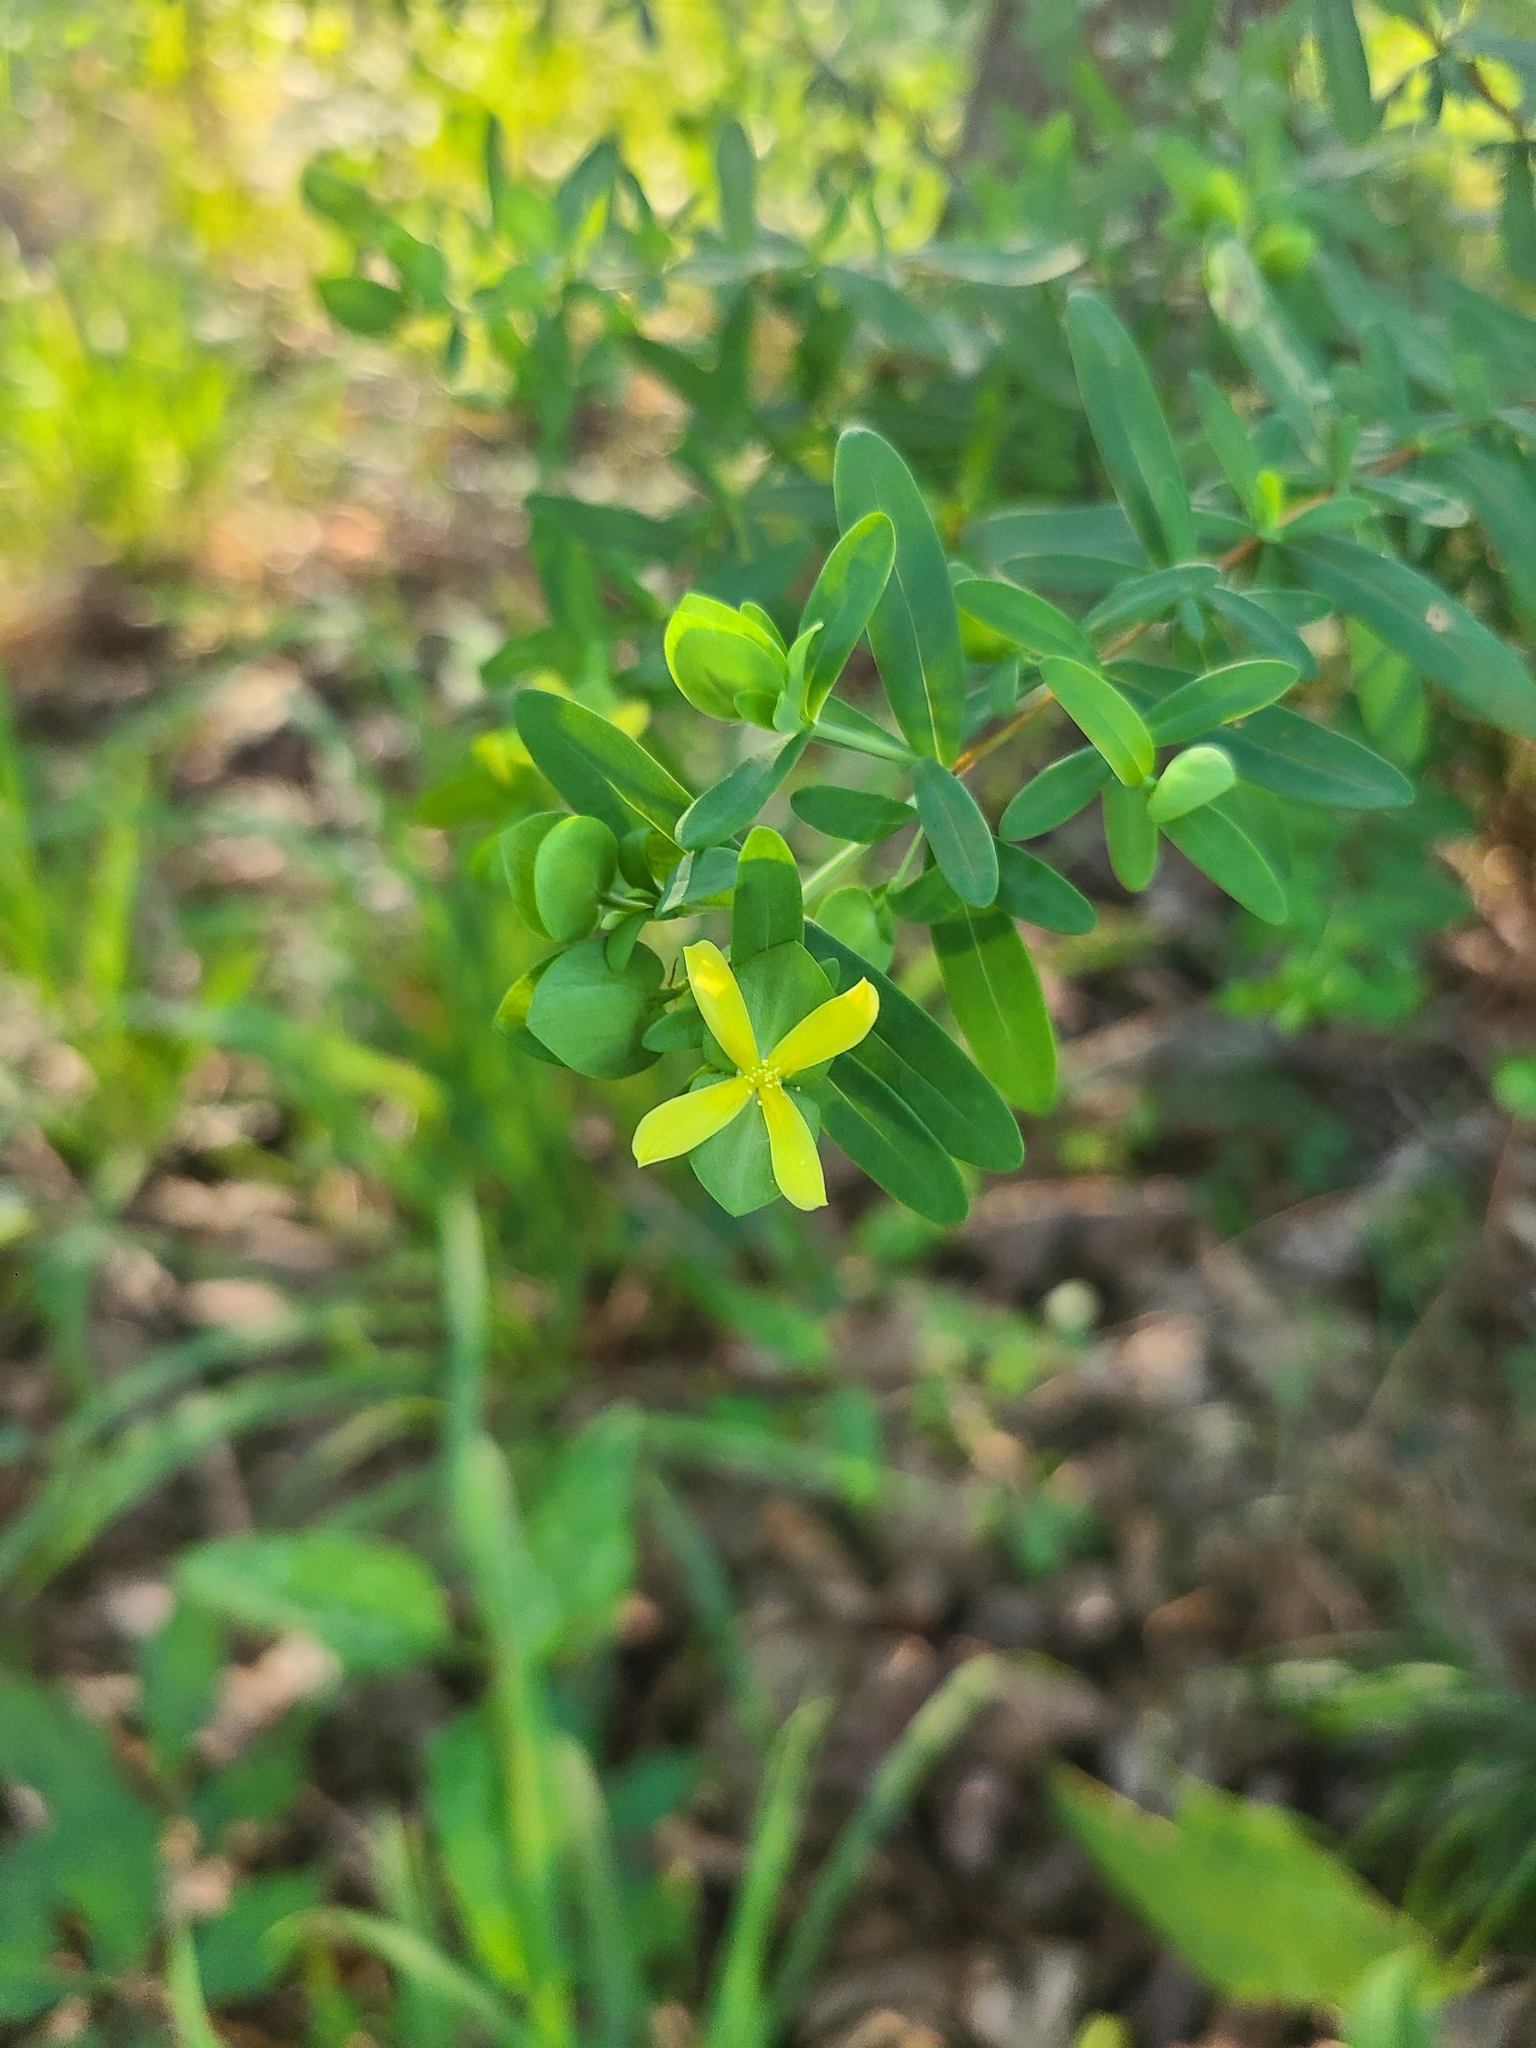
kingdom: Plantae
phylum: Tracheophyta
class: Magnoliopsida
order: Malpighiales
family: Hypericaceae
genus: Hypericum
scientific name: Hypericum hypericoides
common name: St. andrew's cross
